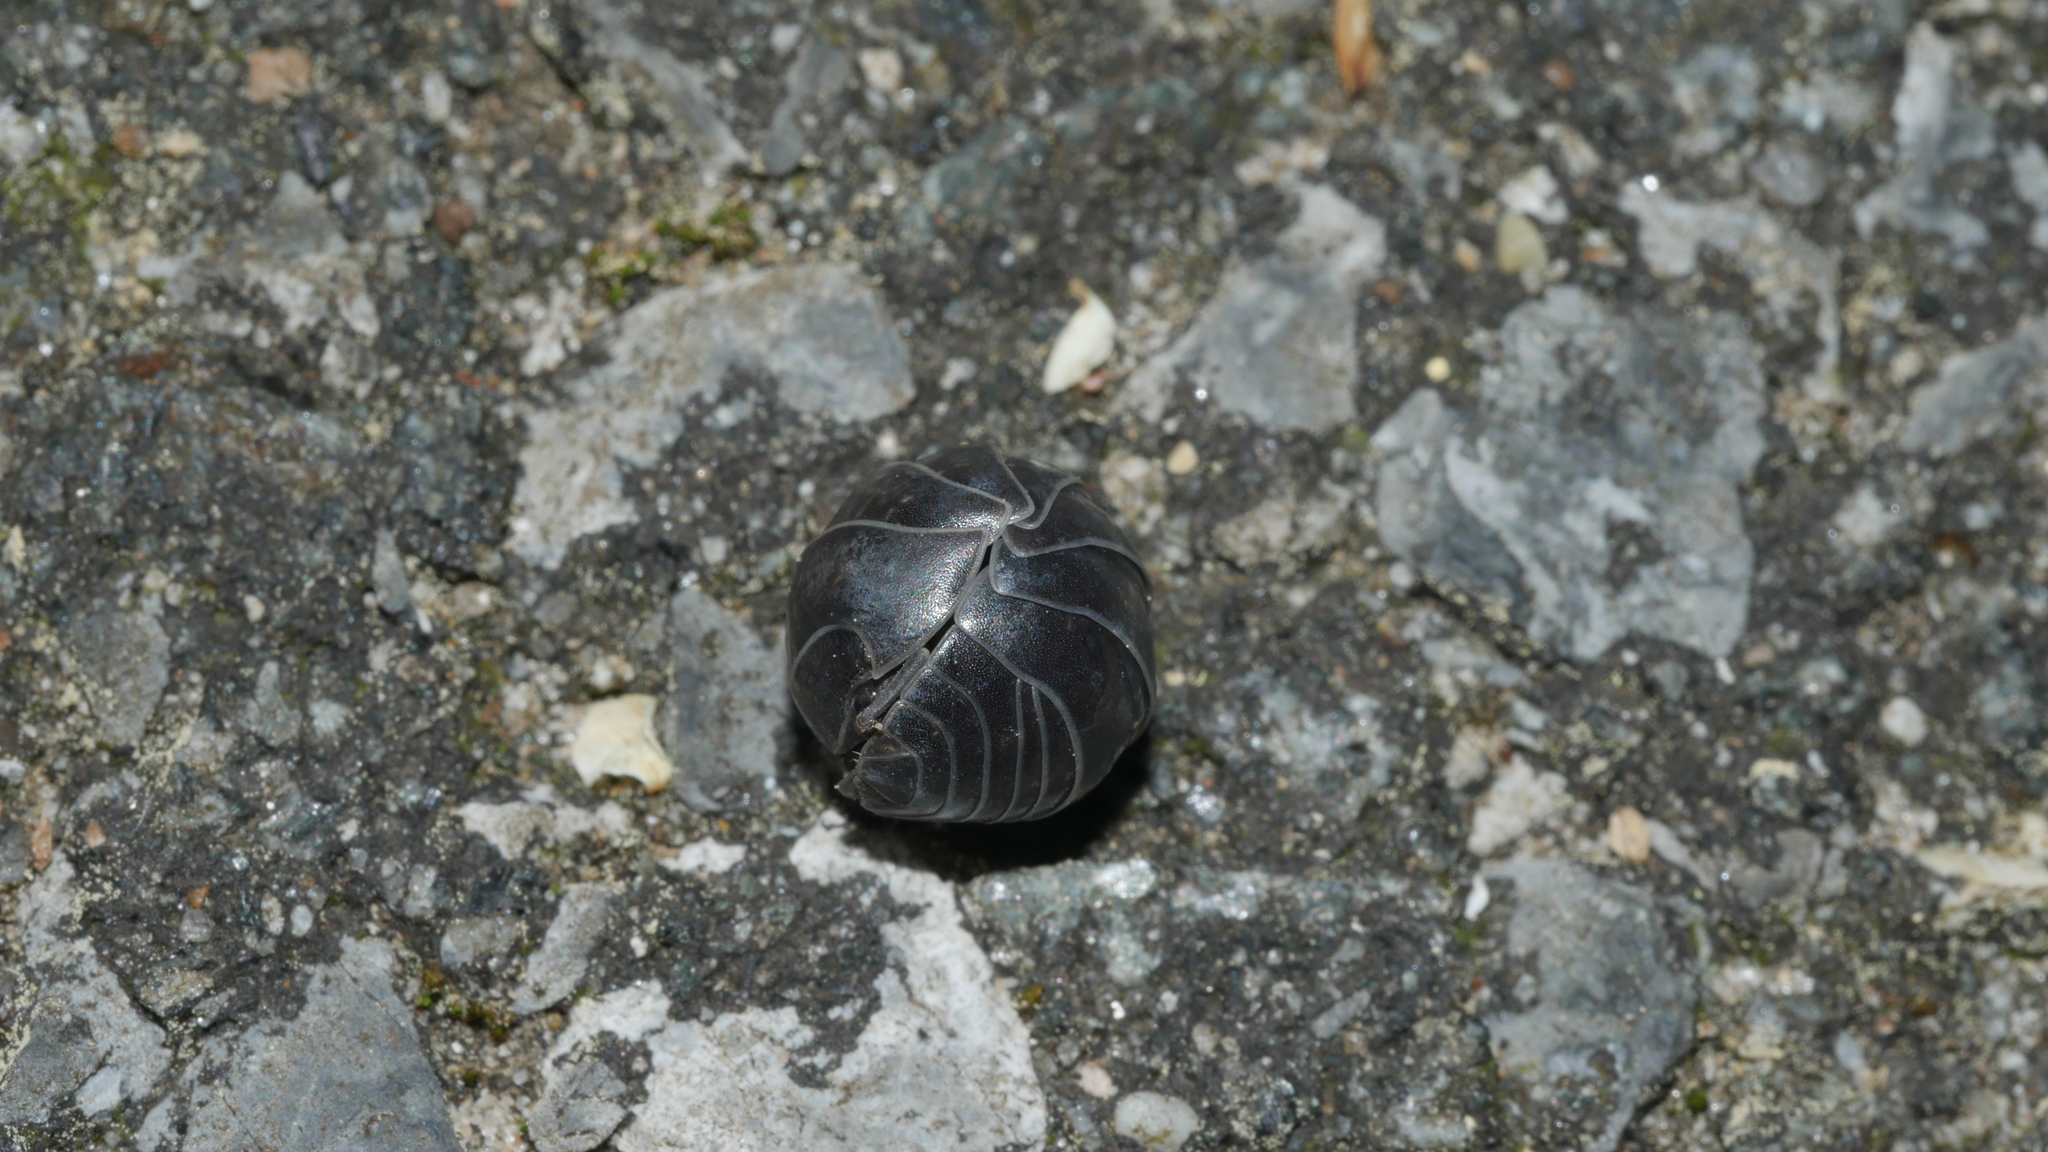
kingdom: Animalia
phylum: Arthropoda
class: Malacostraca
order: Isopoda
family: Armadillidiidae
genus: Armadillidium
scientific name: Armadillidium vulgare
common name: Common pill woodlouse
